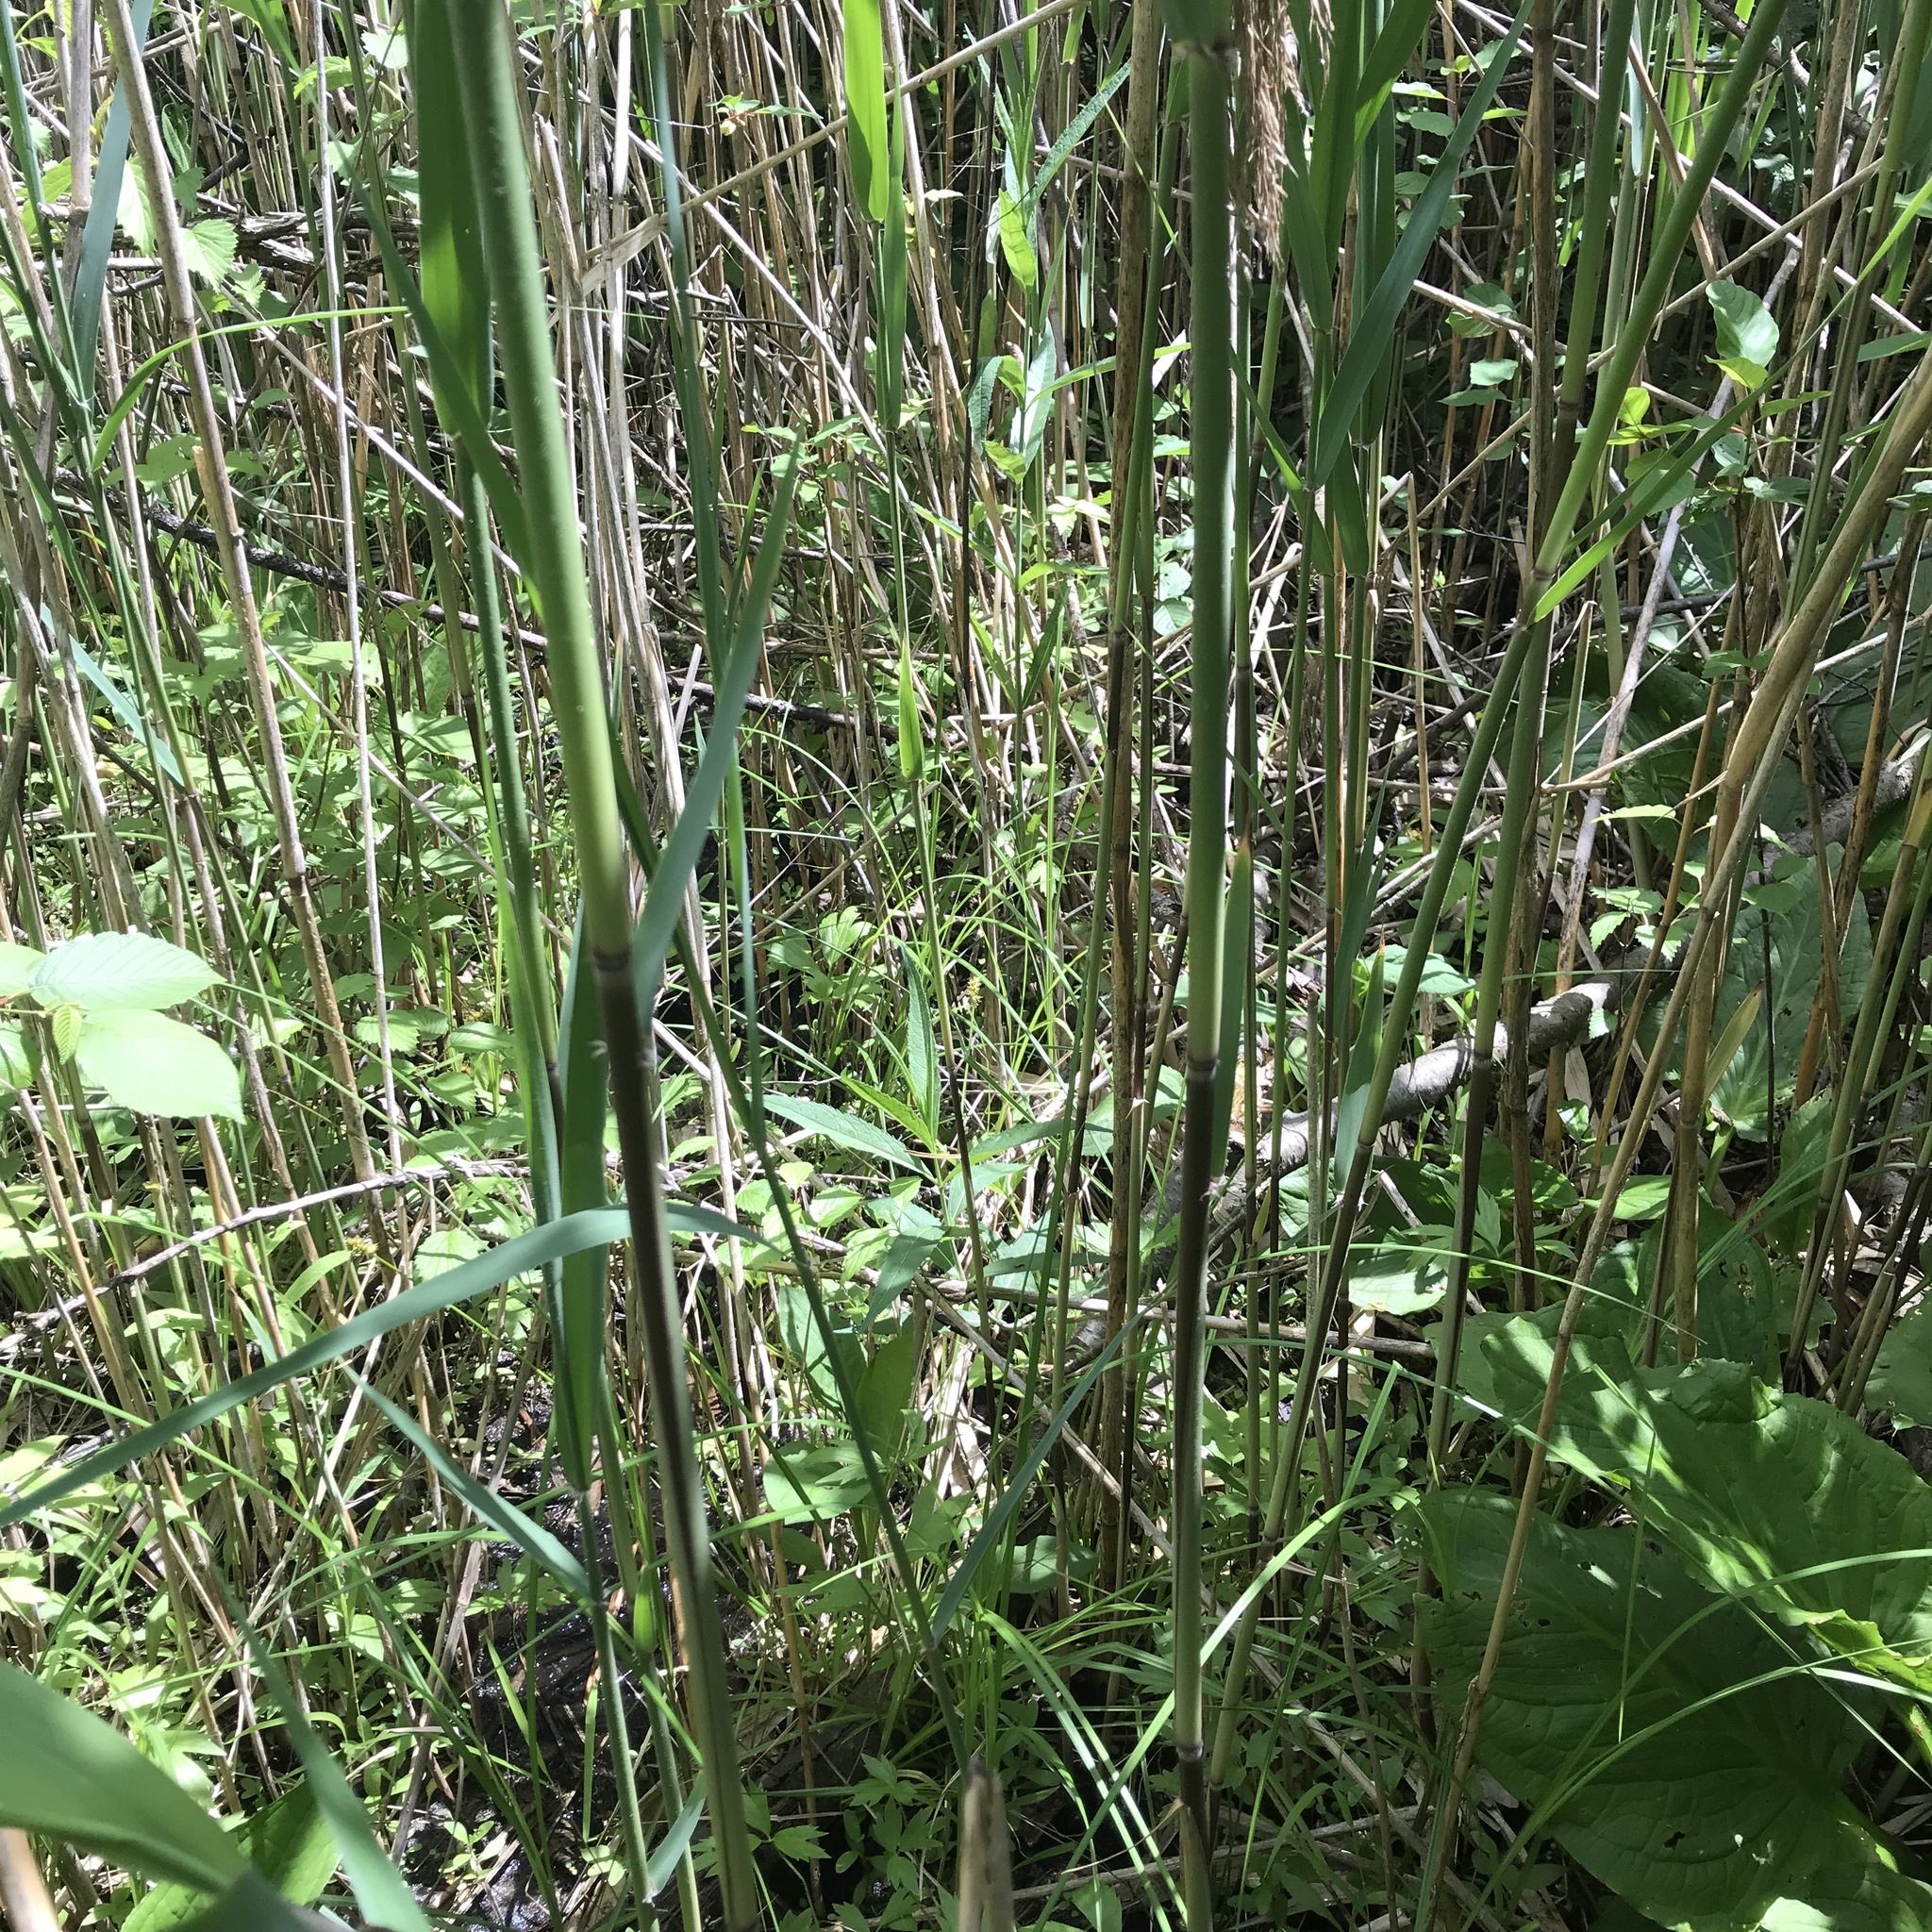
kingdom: Plantae
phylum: Tracheophyta
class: Liliopsida
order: Poales
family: Poaceae
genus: Phragmites
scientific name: Phragmites australis
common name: Common reed
